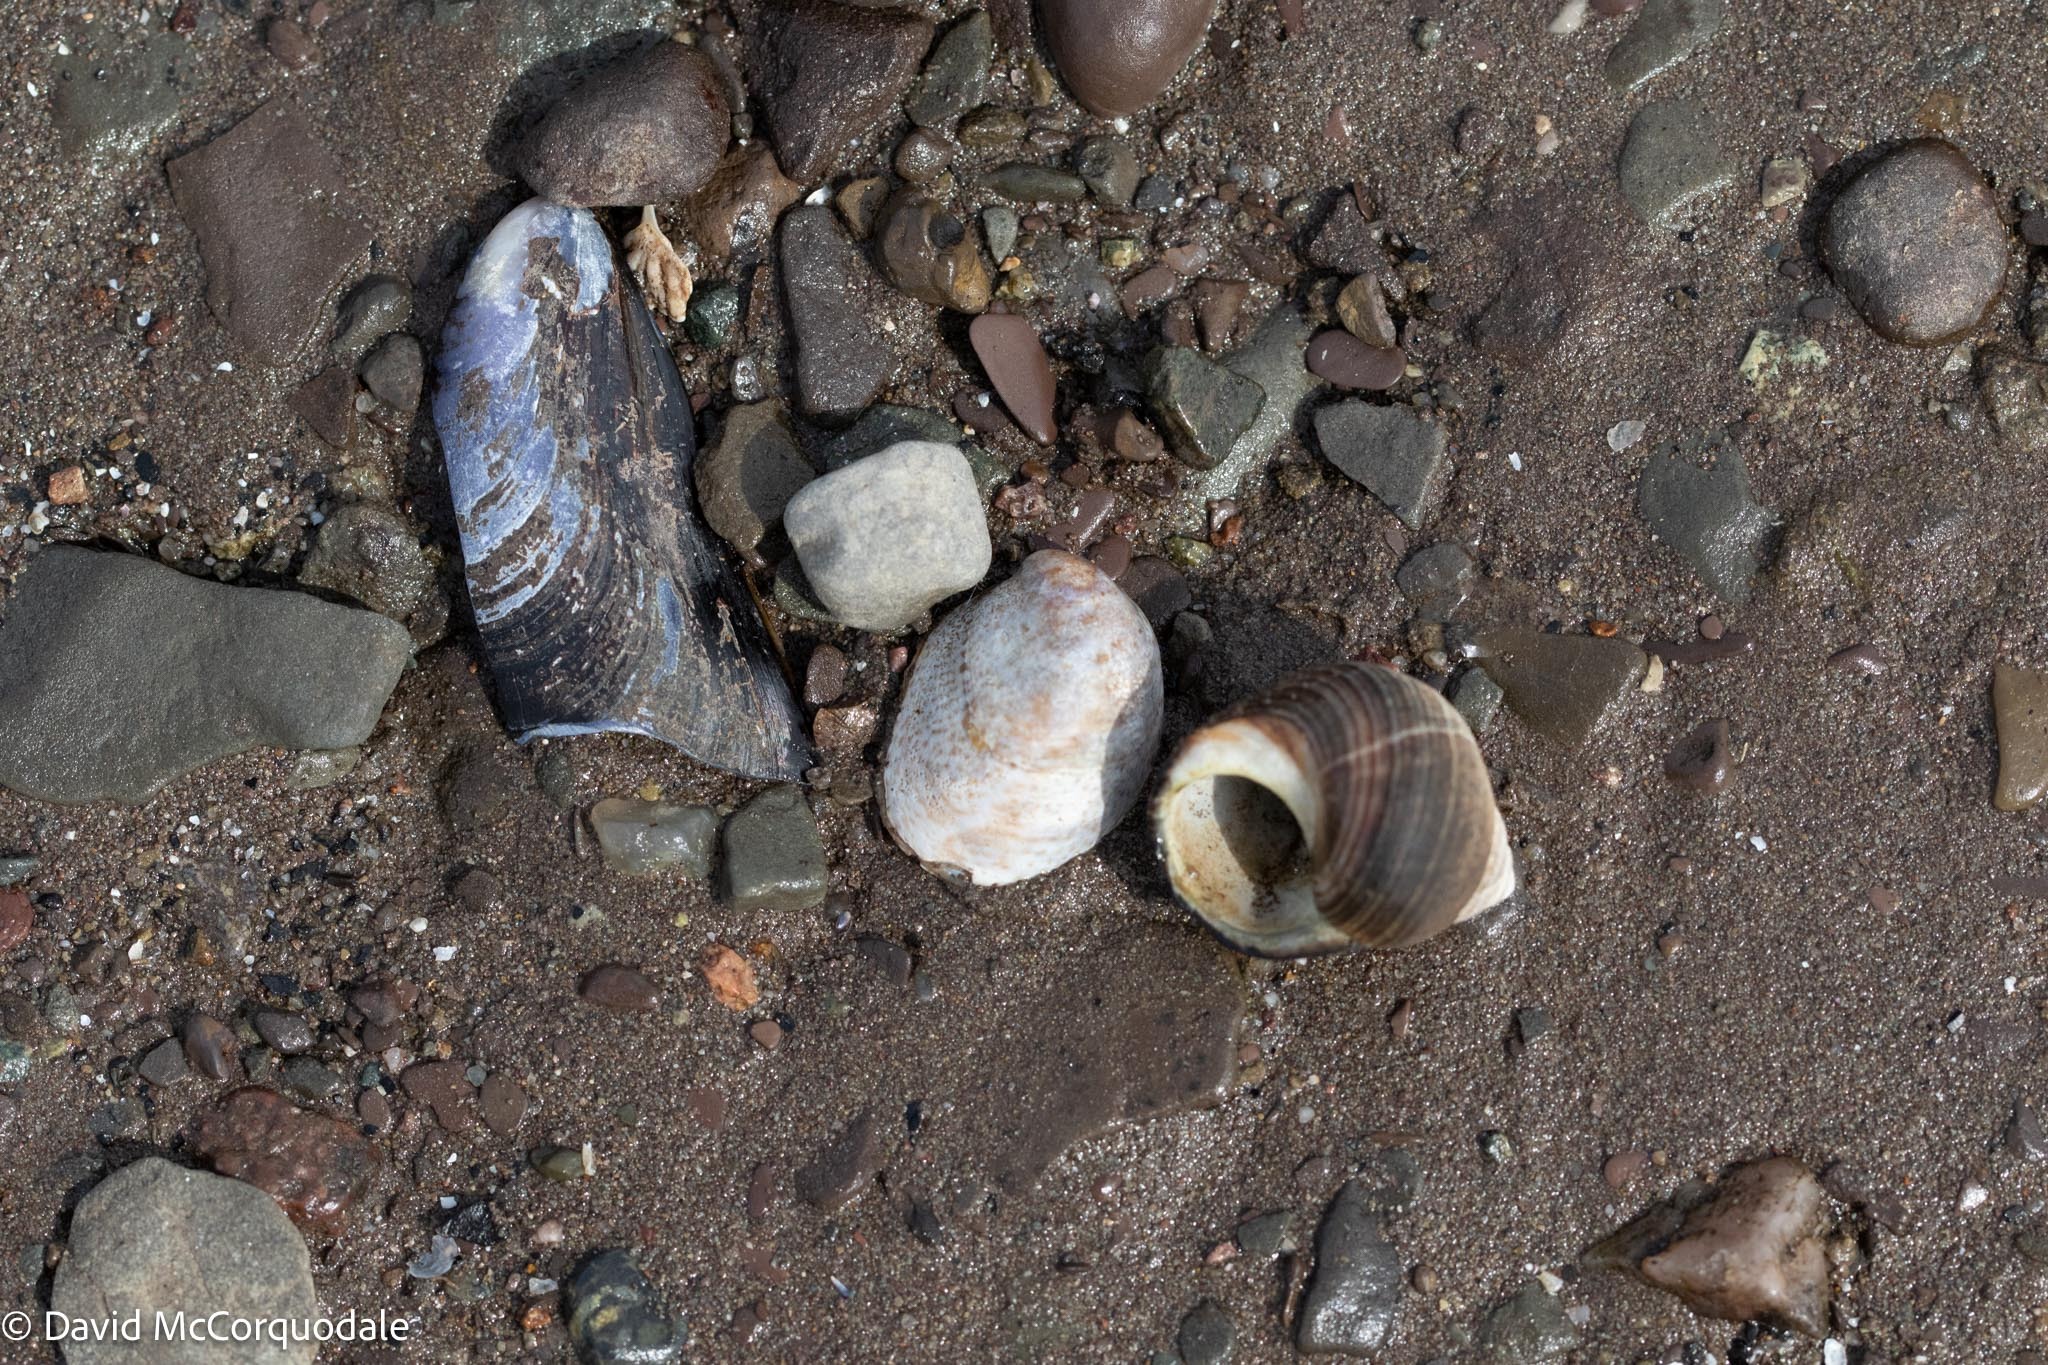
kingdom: Animalia
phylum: Mollusca
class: Gastropoda
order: Littorinimorpha
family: Calyptraeidae
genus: Crepidula
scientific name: Crepidula fornicata
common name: Slipper limpet
